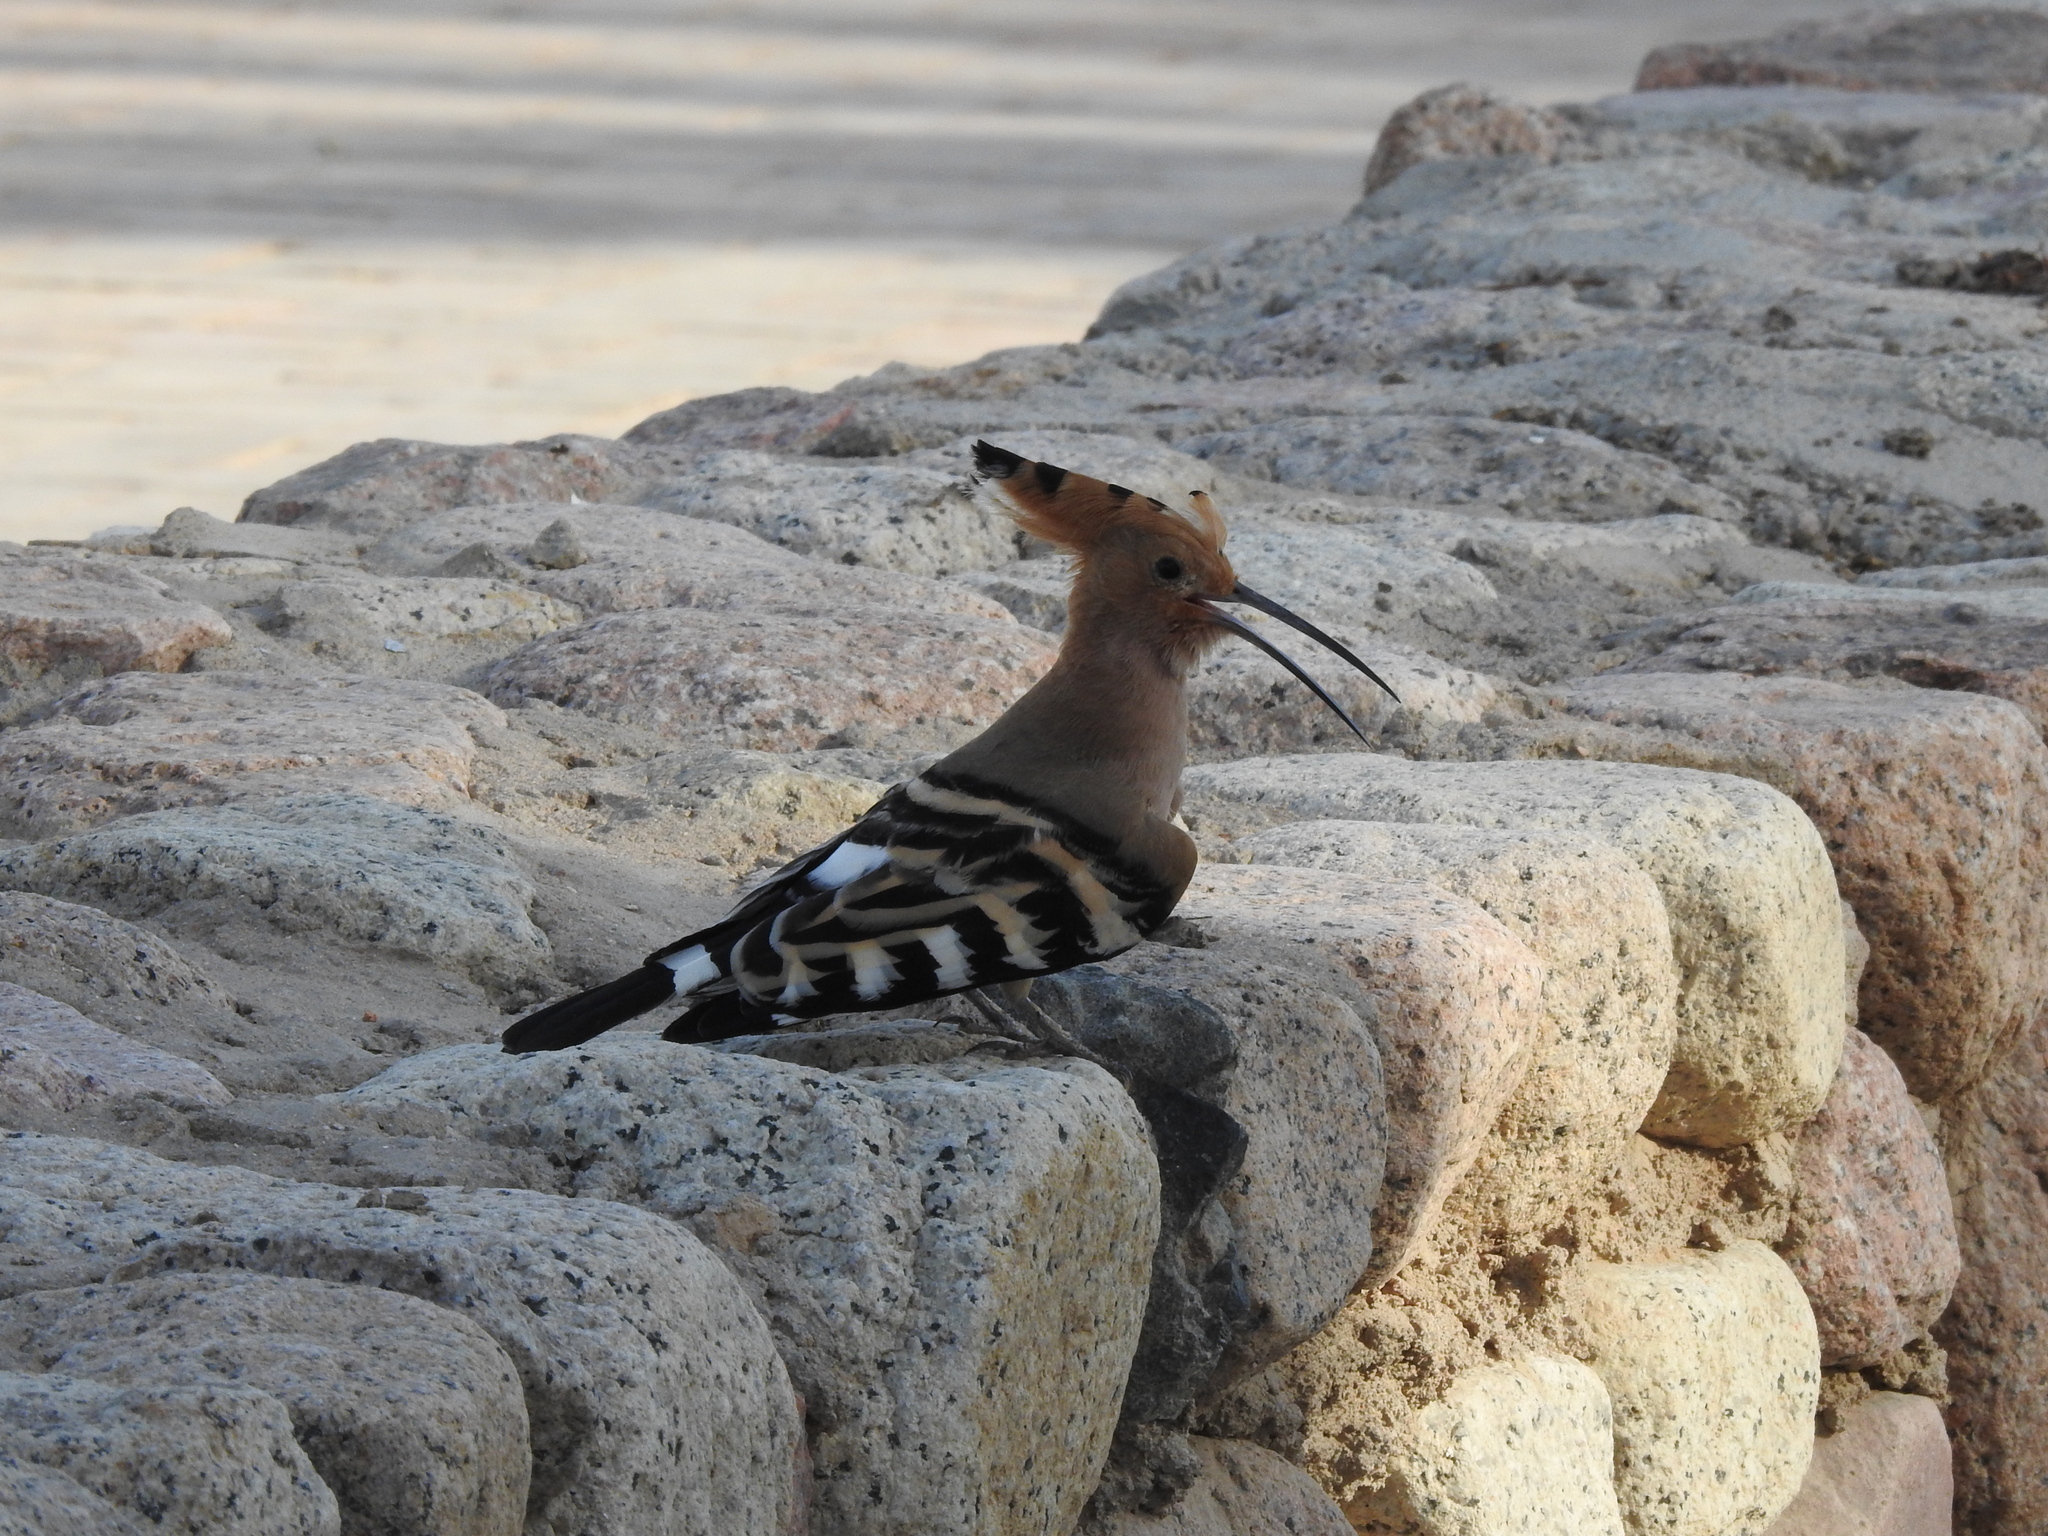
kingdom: Animalia
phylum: Chordata
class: Aves
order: Bucerotiformes
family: Upupidae
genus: Upupa
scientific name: Upupa epops
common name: Eurasian hoopoe
